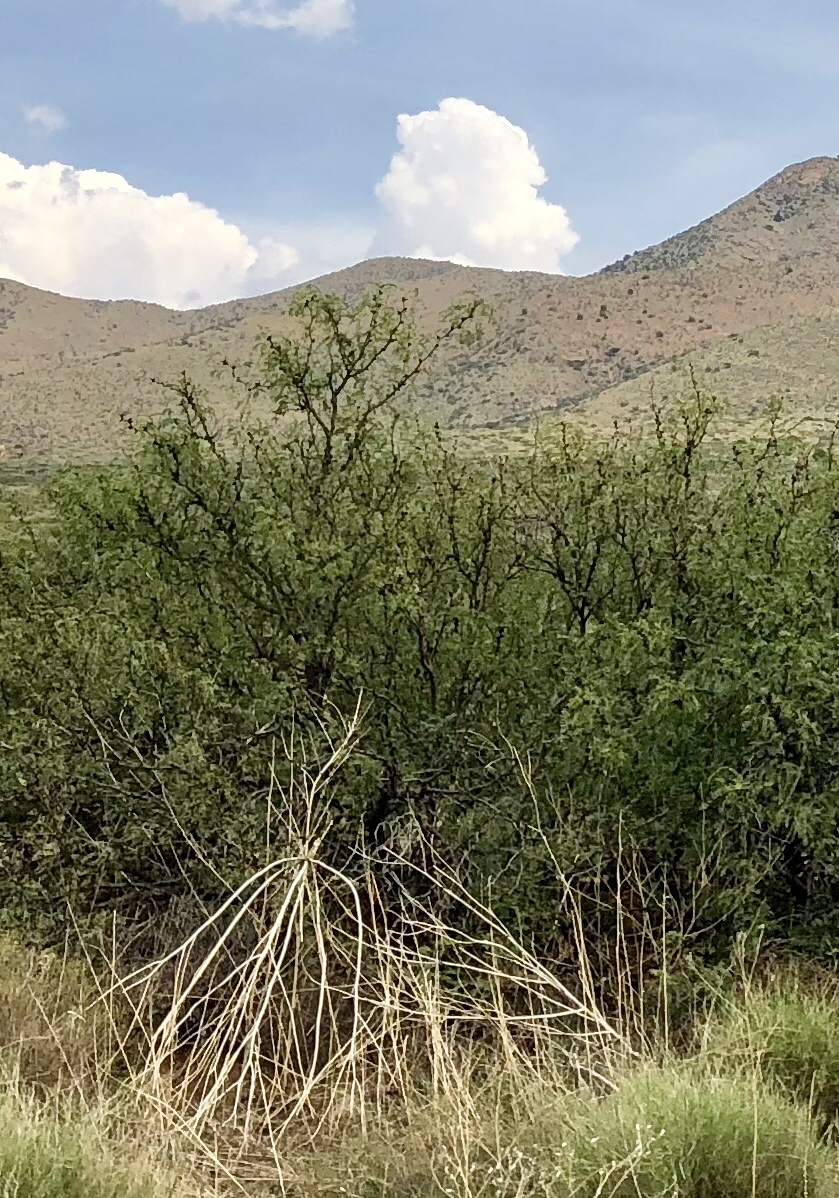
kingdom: Plantae
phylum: Tracheophyta
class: Magnoliopsida
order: Fabales
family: Fabaceae
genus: Prosopis
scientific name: Prosopis glandulosa
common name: Honey mesquite
